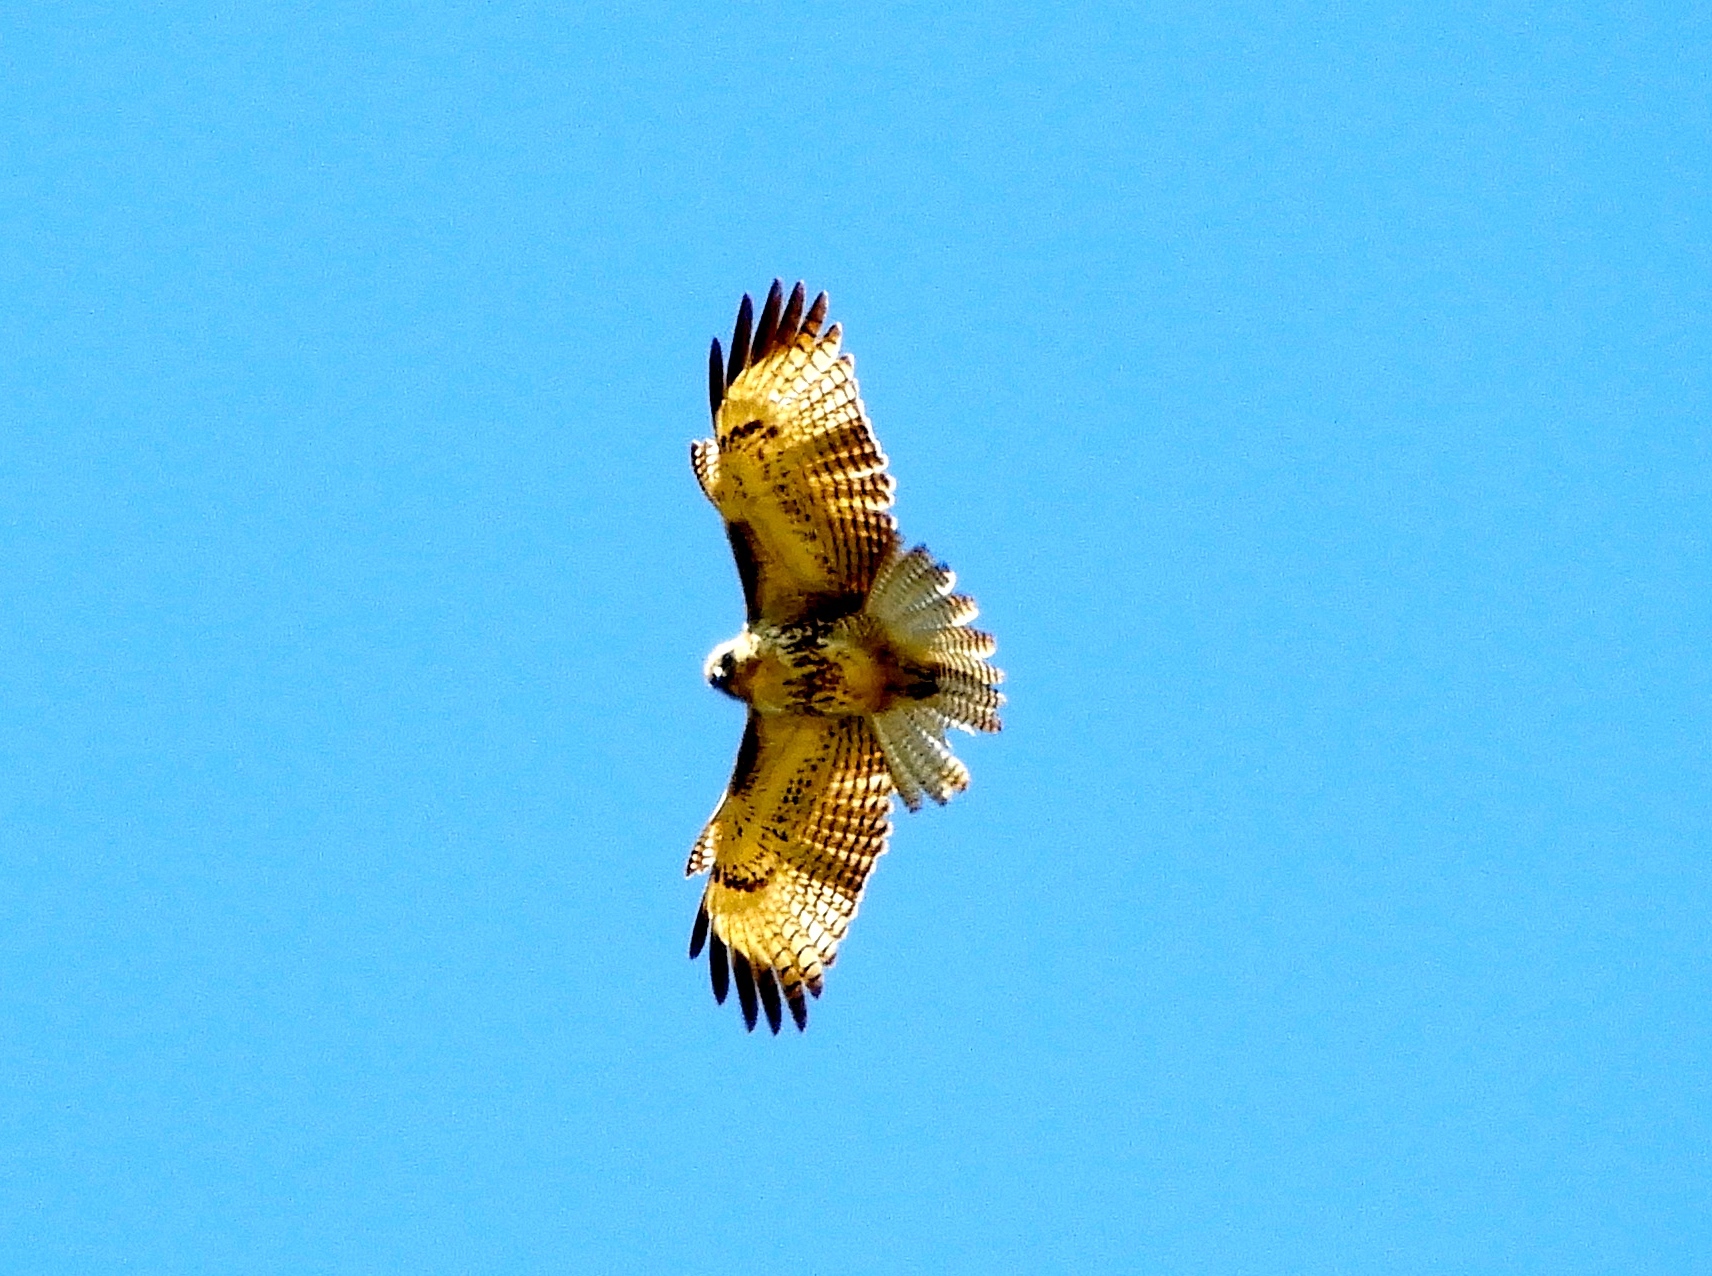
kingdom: Animalia
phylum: Chordata
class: Aves
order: Accipitriformes
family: Accipitridae
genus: Buteo
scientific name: Buteo jamaicensis
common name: Red-tailed hawk
